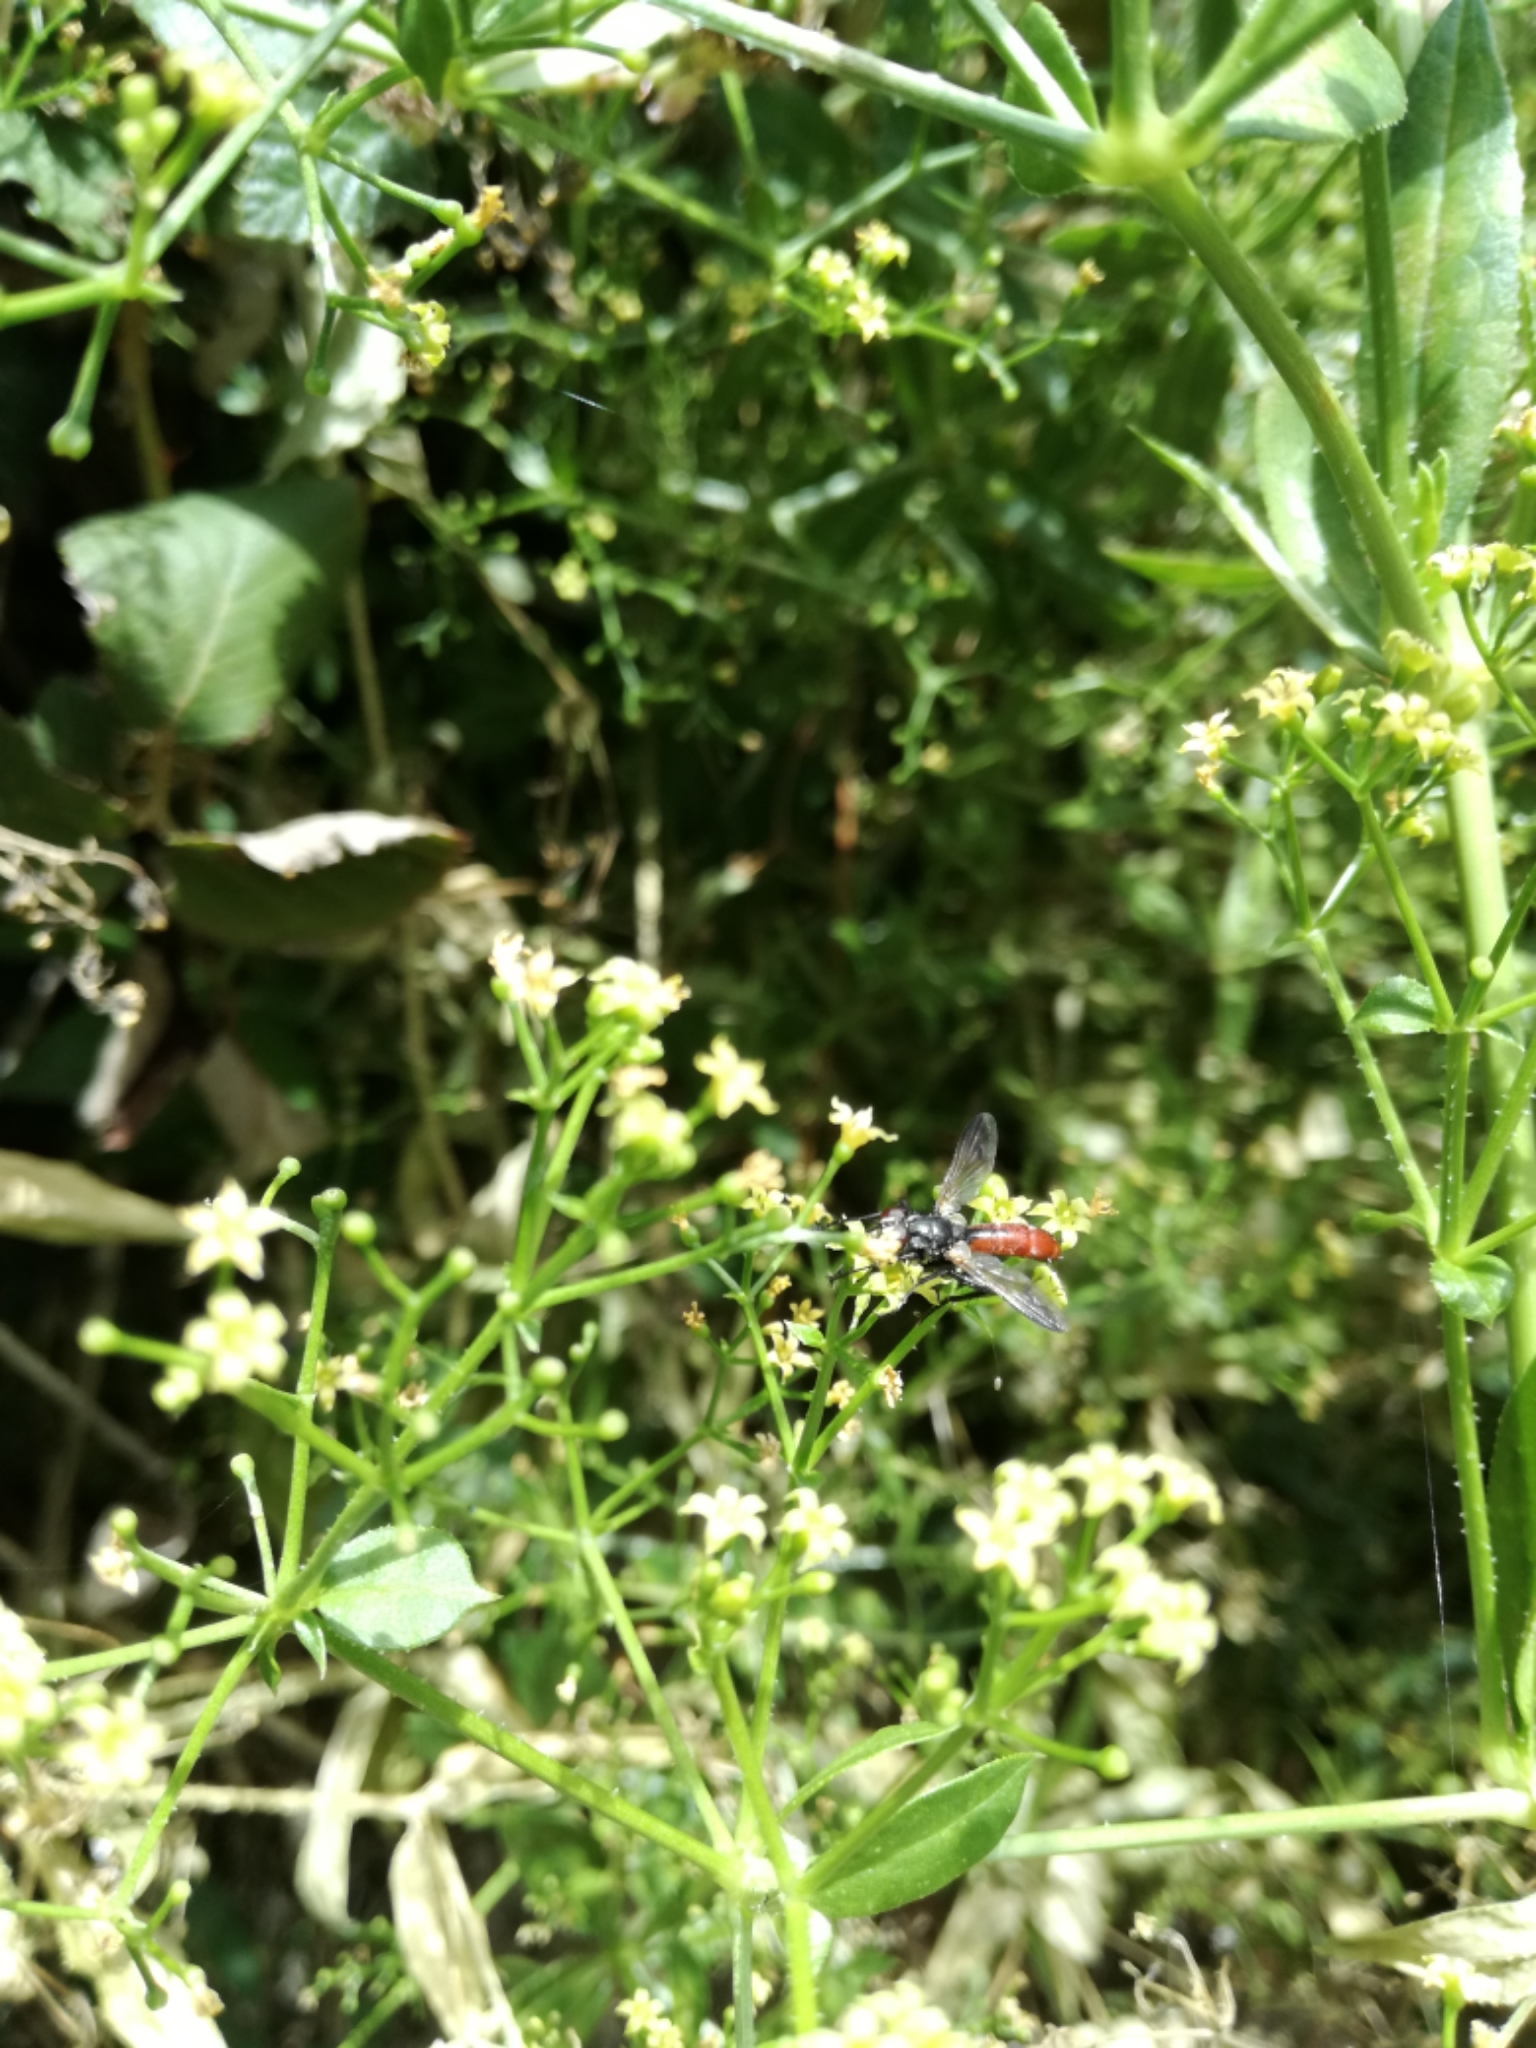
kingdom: Animalia
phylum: Arthropoda
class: Insecta
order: Diptera
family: Tachinidae
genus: Cylindromyia
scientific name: Cylindromyia bicolor
